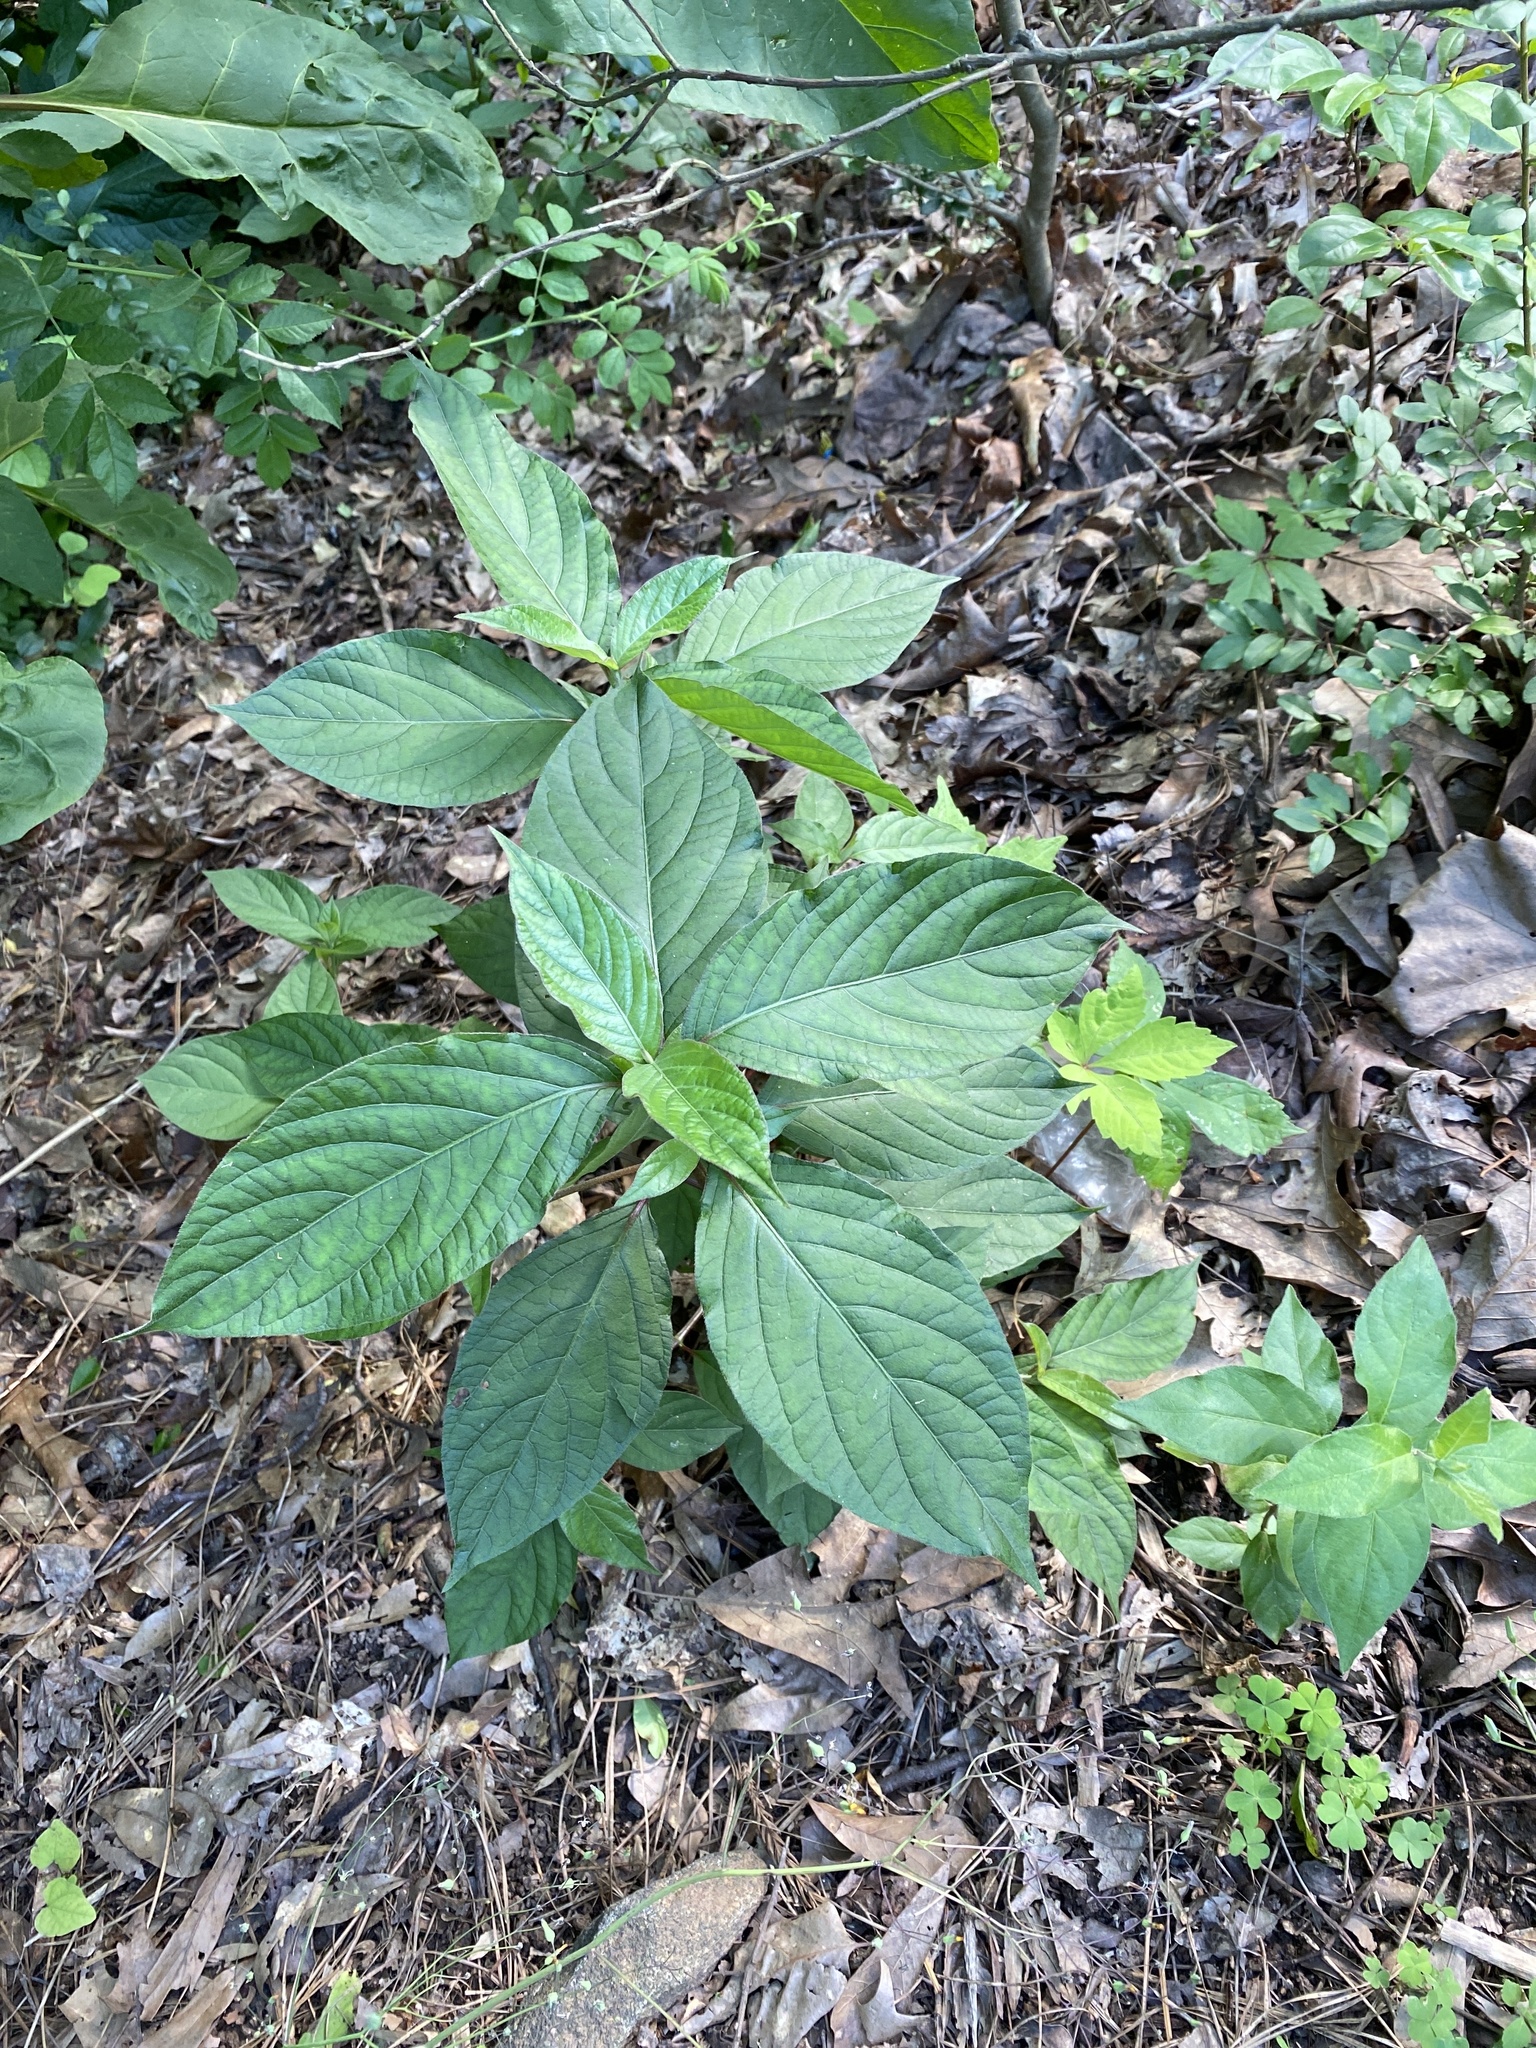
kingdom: Plantae
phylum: Tracheophyta
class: Magnoliopsida
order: Caryophyllales
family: Amaranthaceae
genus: Achyranthes
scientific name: Achyranthes bidentata
